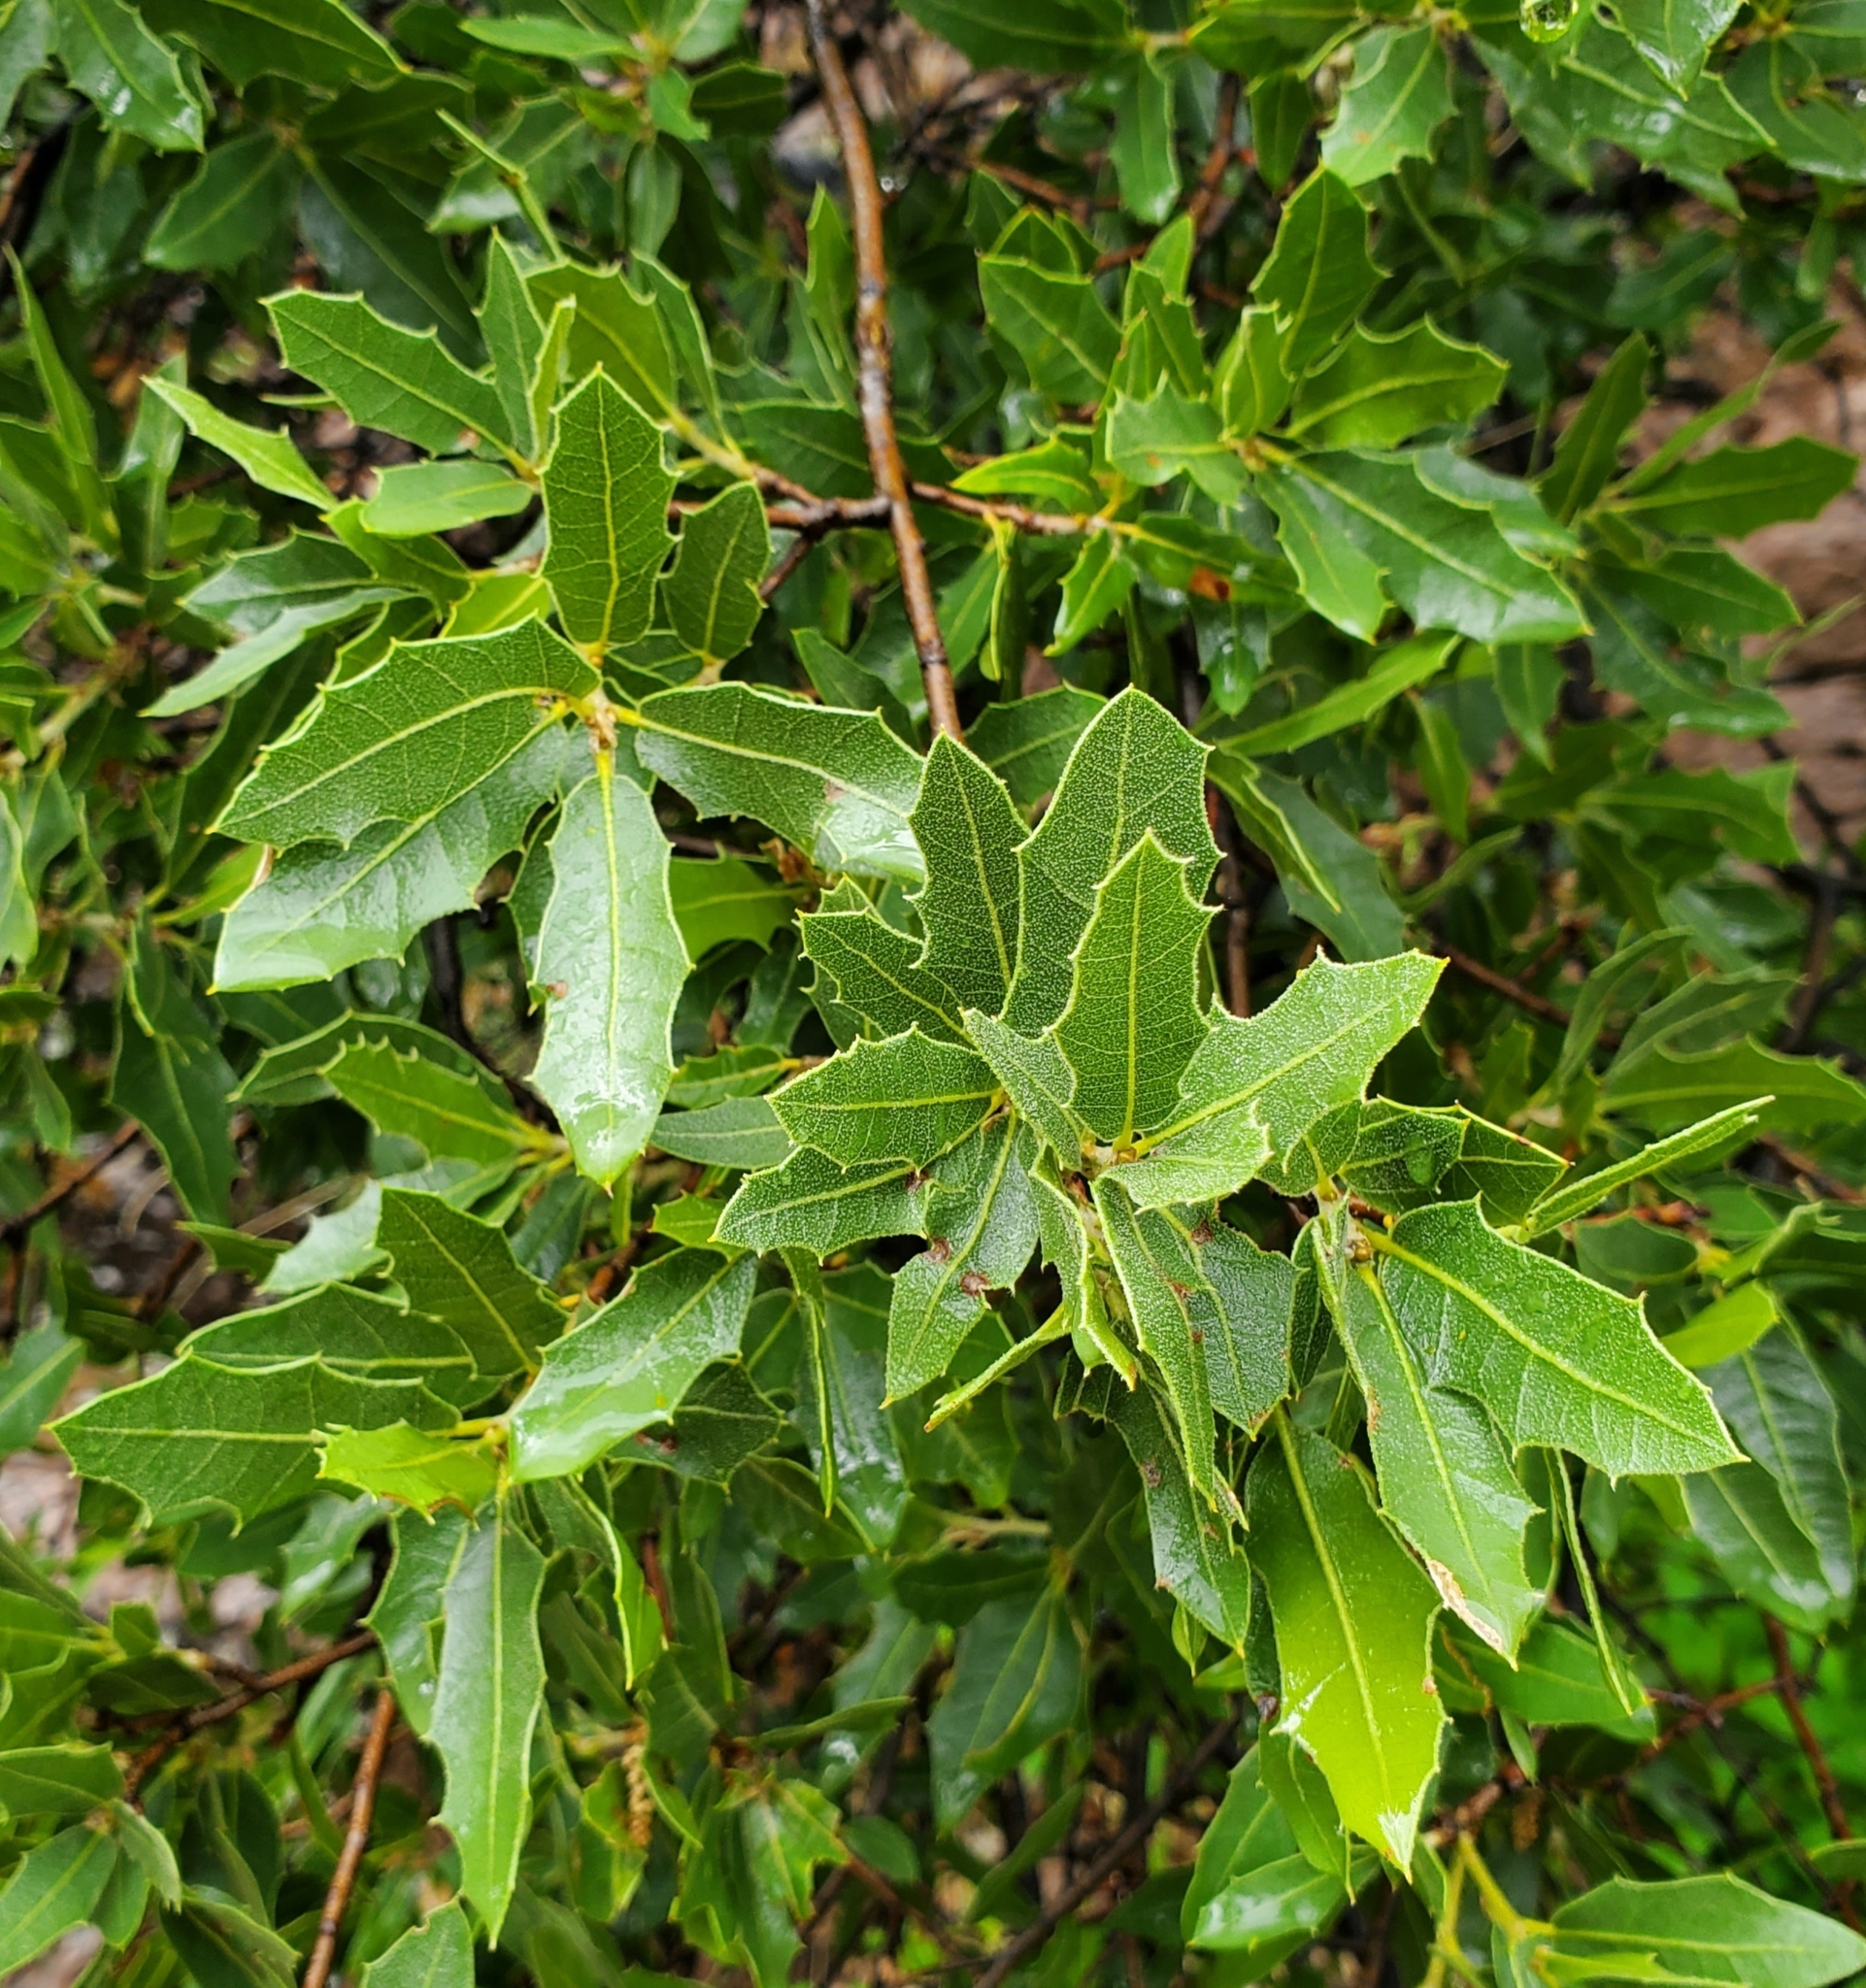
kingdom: Plantae
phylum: Tracheophyta
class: Magnoliopsida
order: Fagales
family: Fagaceae
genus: Quercus
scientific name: Quercus emoryi
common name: Emory oak
